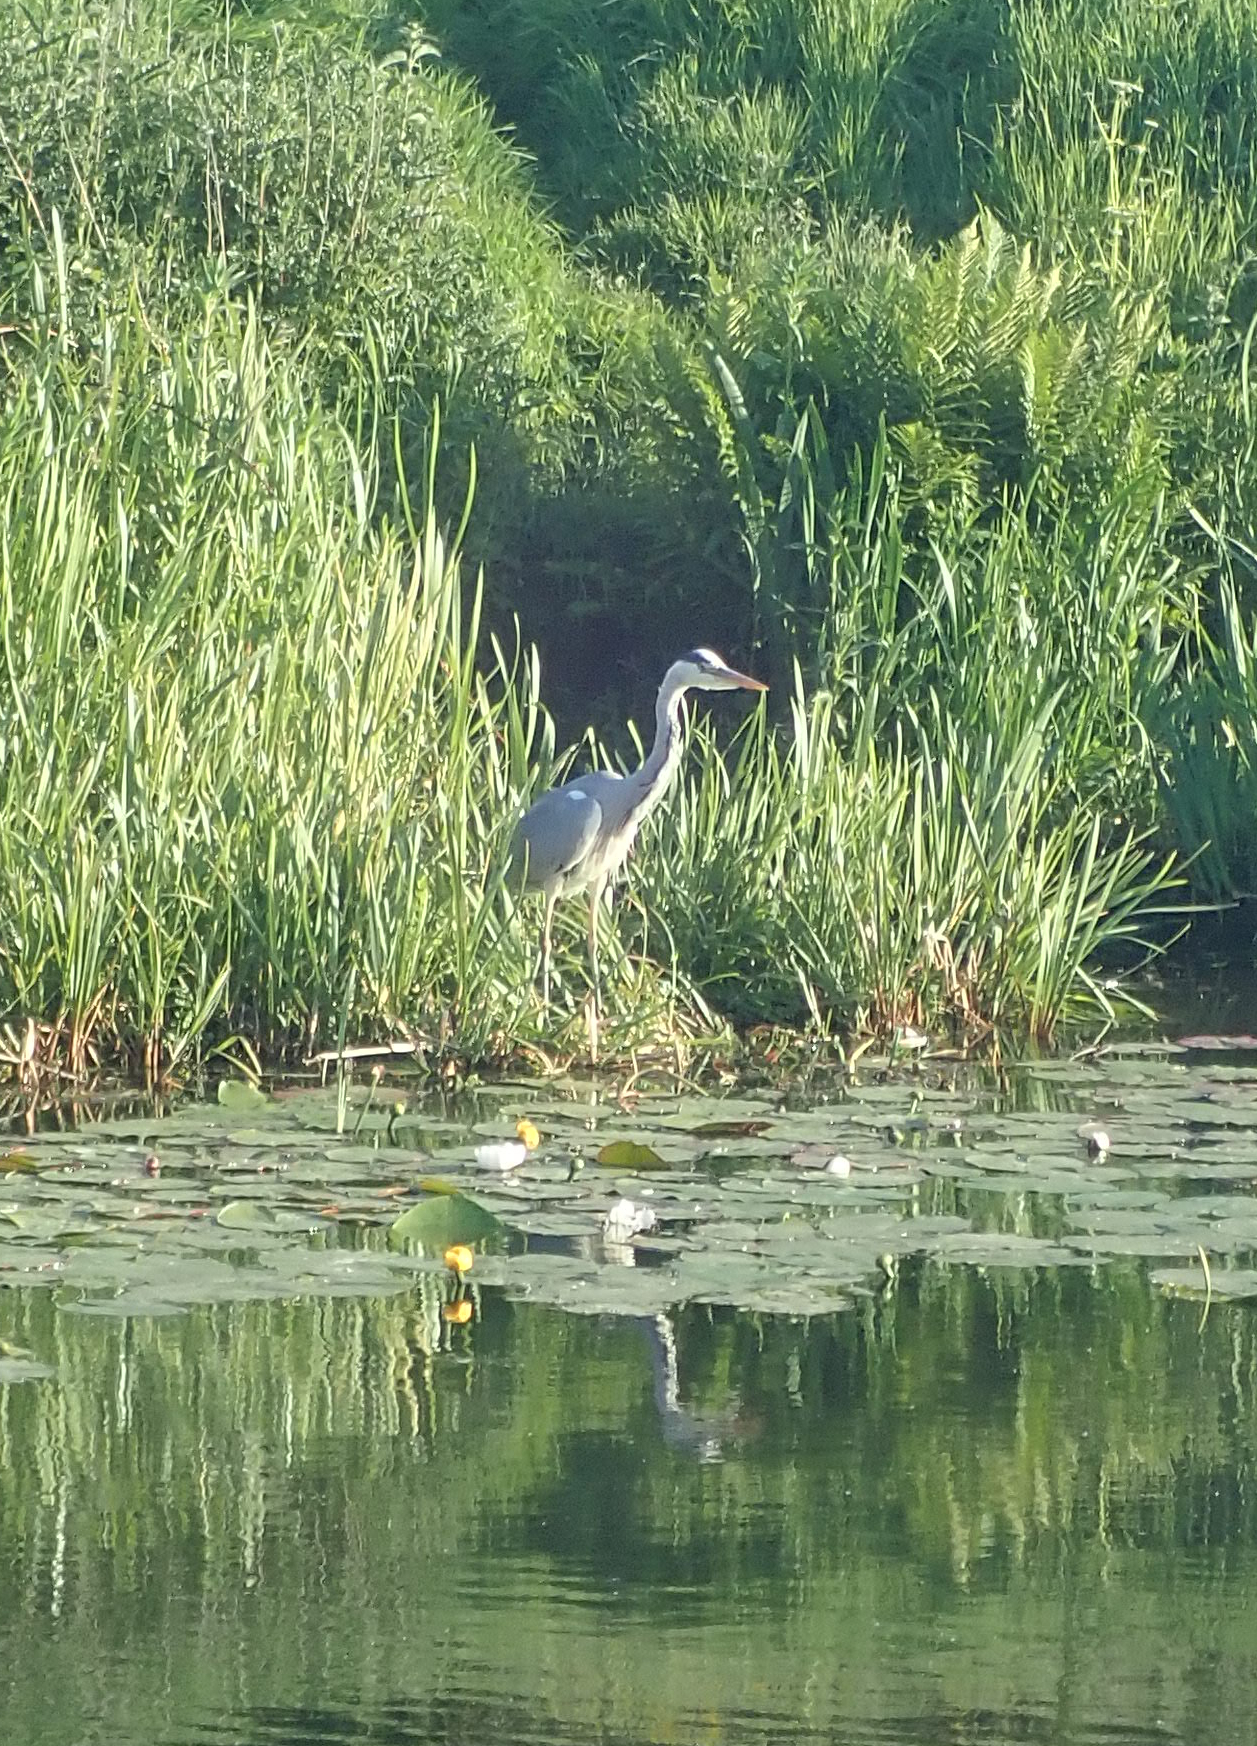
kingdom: Animalia
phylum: Chordata
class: Aves
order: Pelecaniformes
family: Ardeidae
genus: Ardea
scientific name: Ardea cinerea
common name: Grey heron
